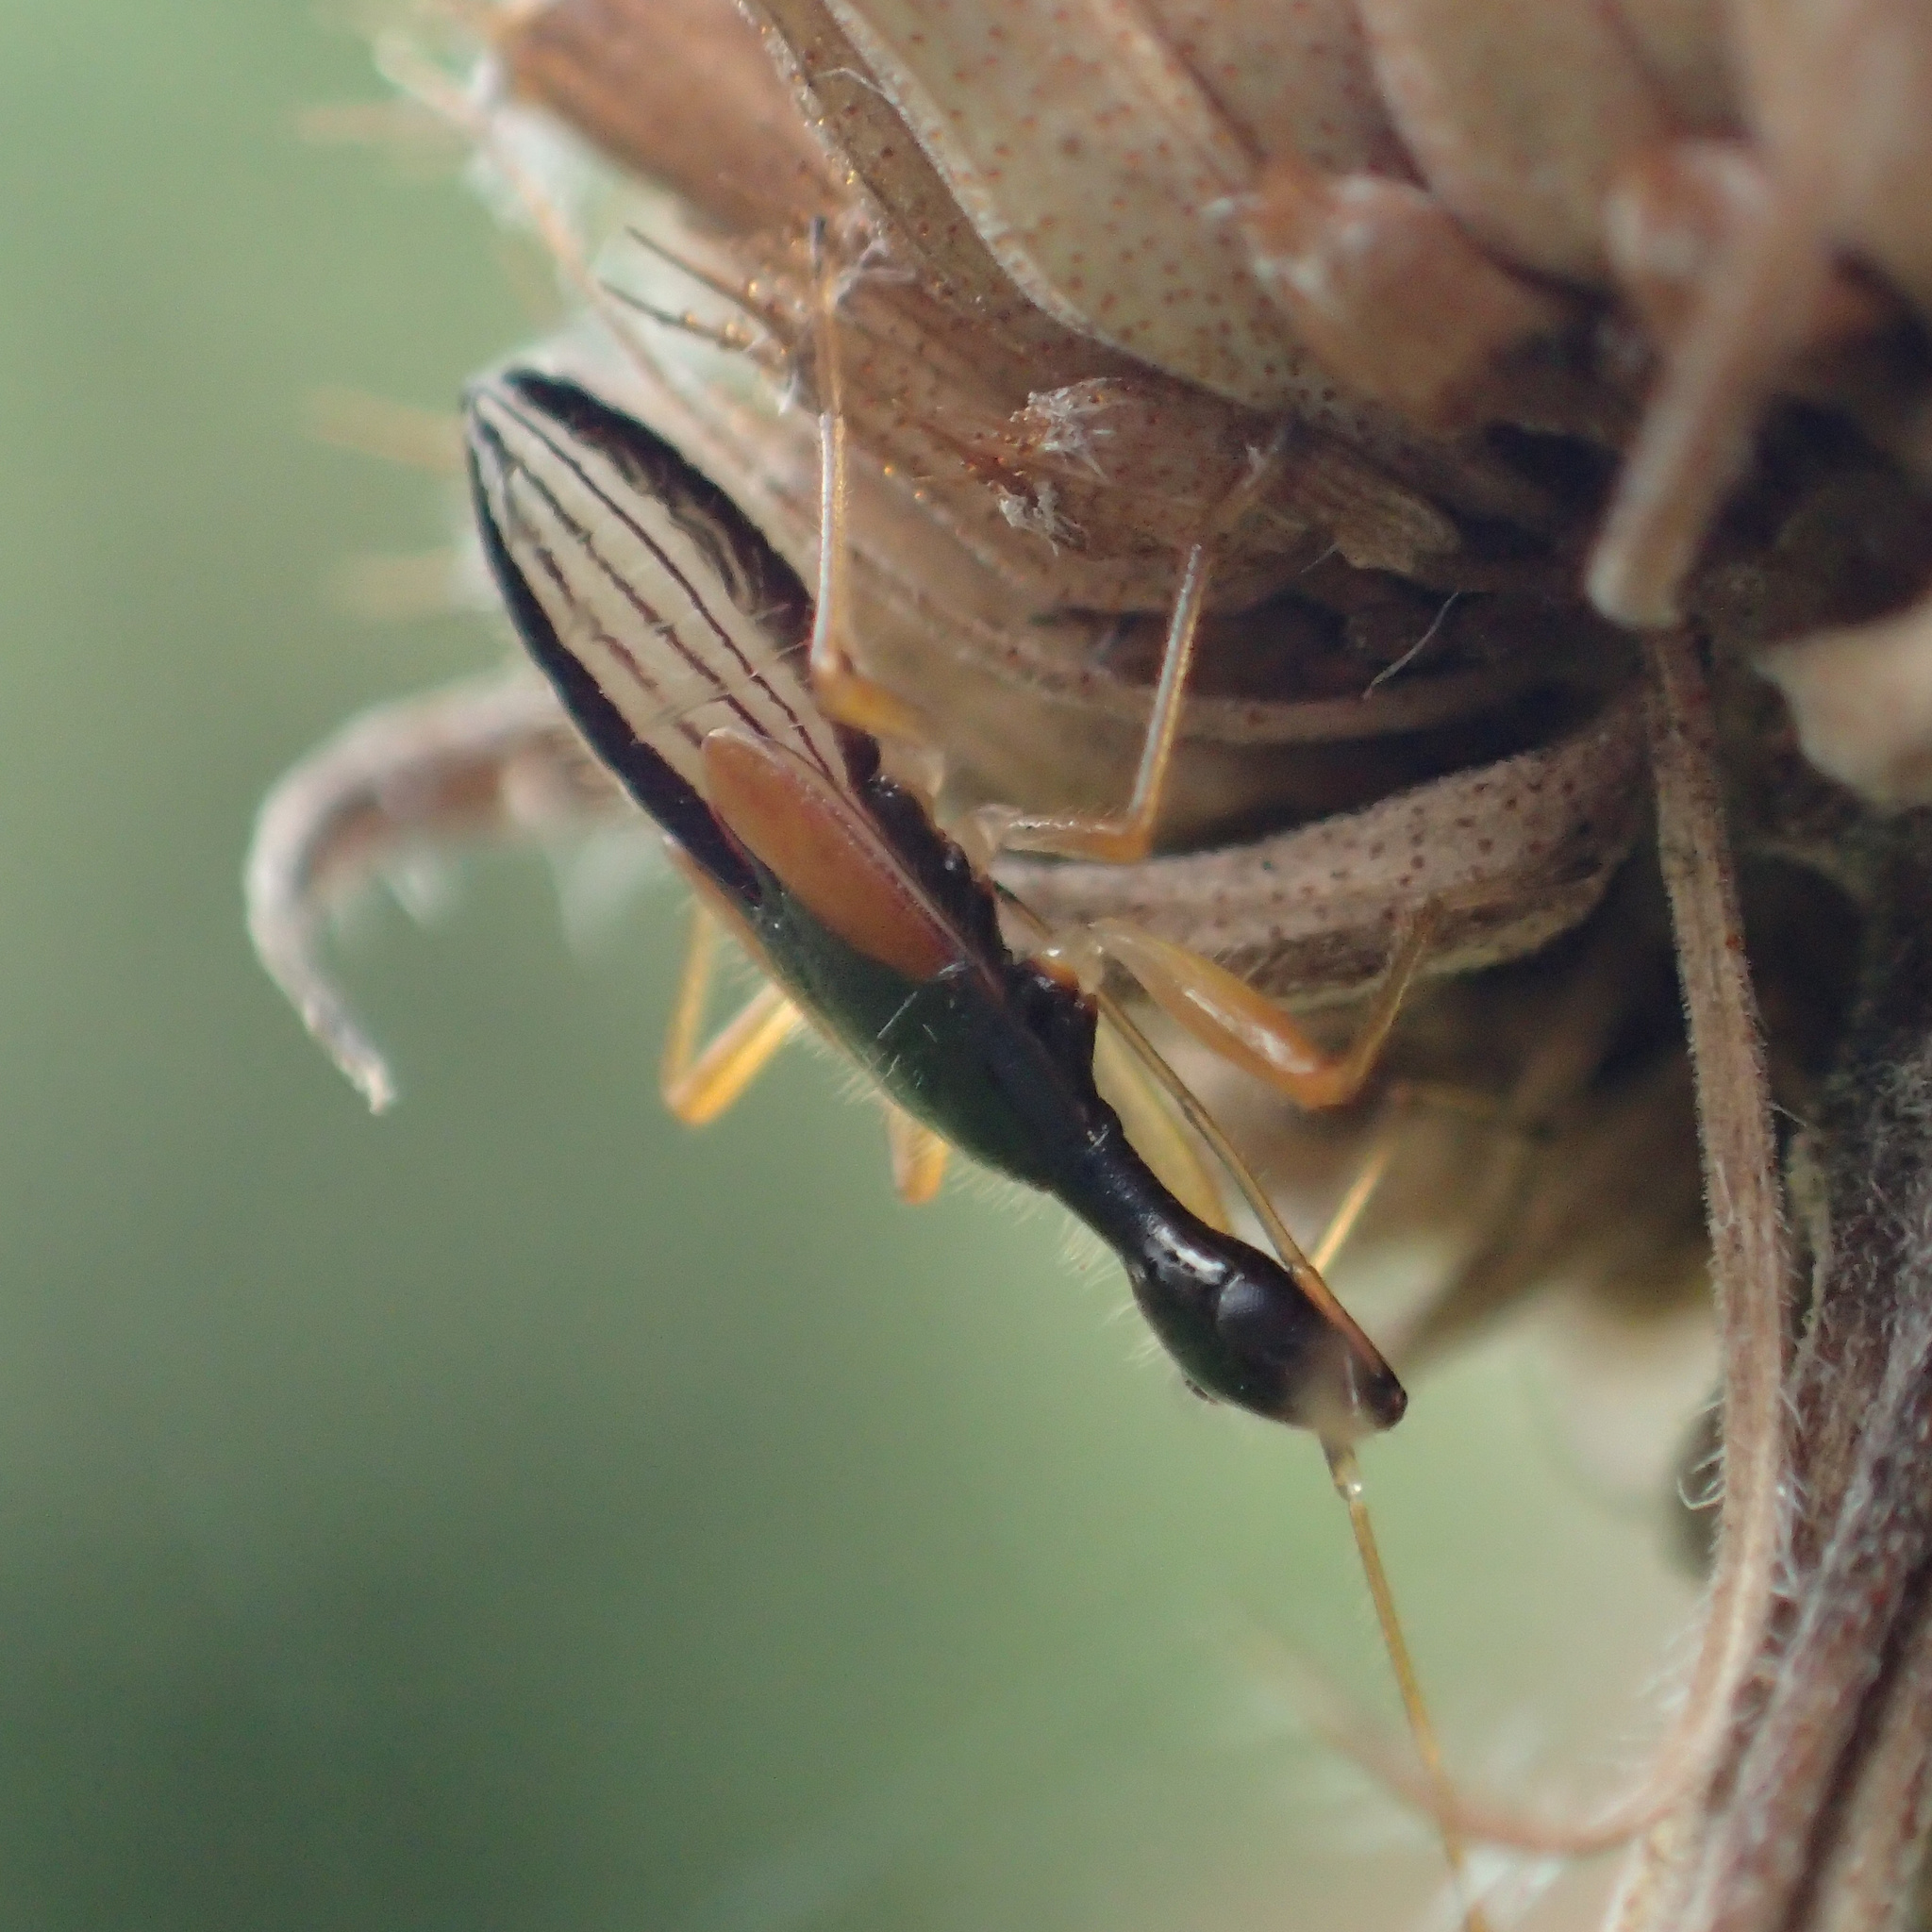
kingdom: Animalia
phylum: Arthropoda
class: Insecta
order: Hemiptera
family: Rhyparochromidae
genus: Myodocha
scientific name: Myodocha serripes
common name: Long-necked seed bug
